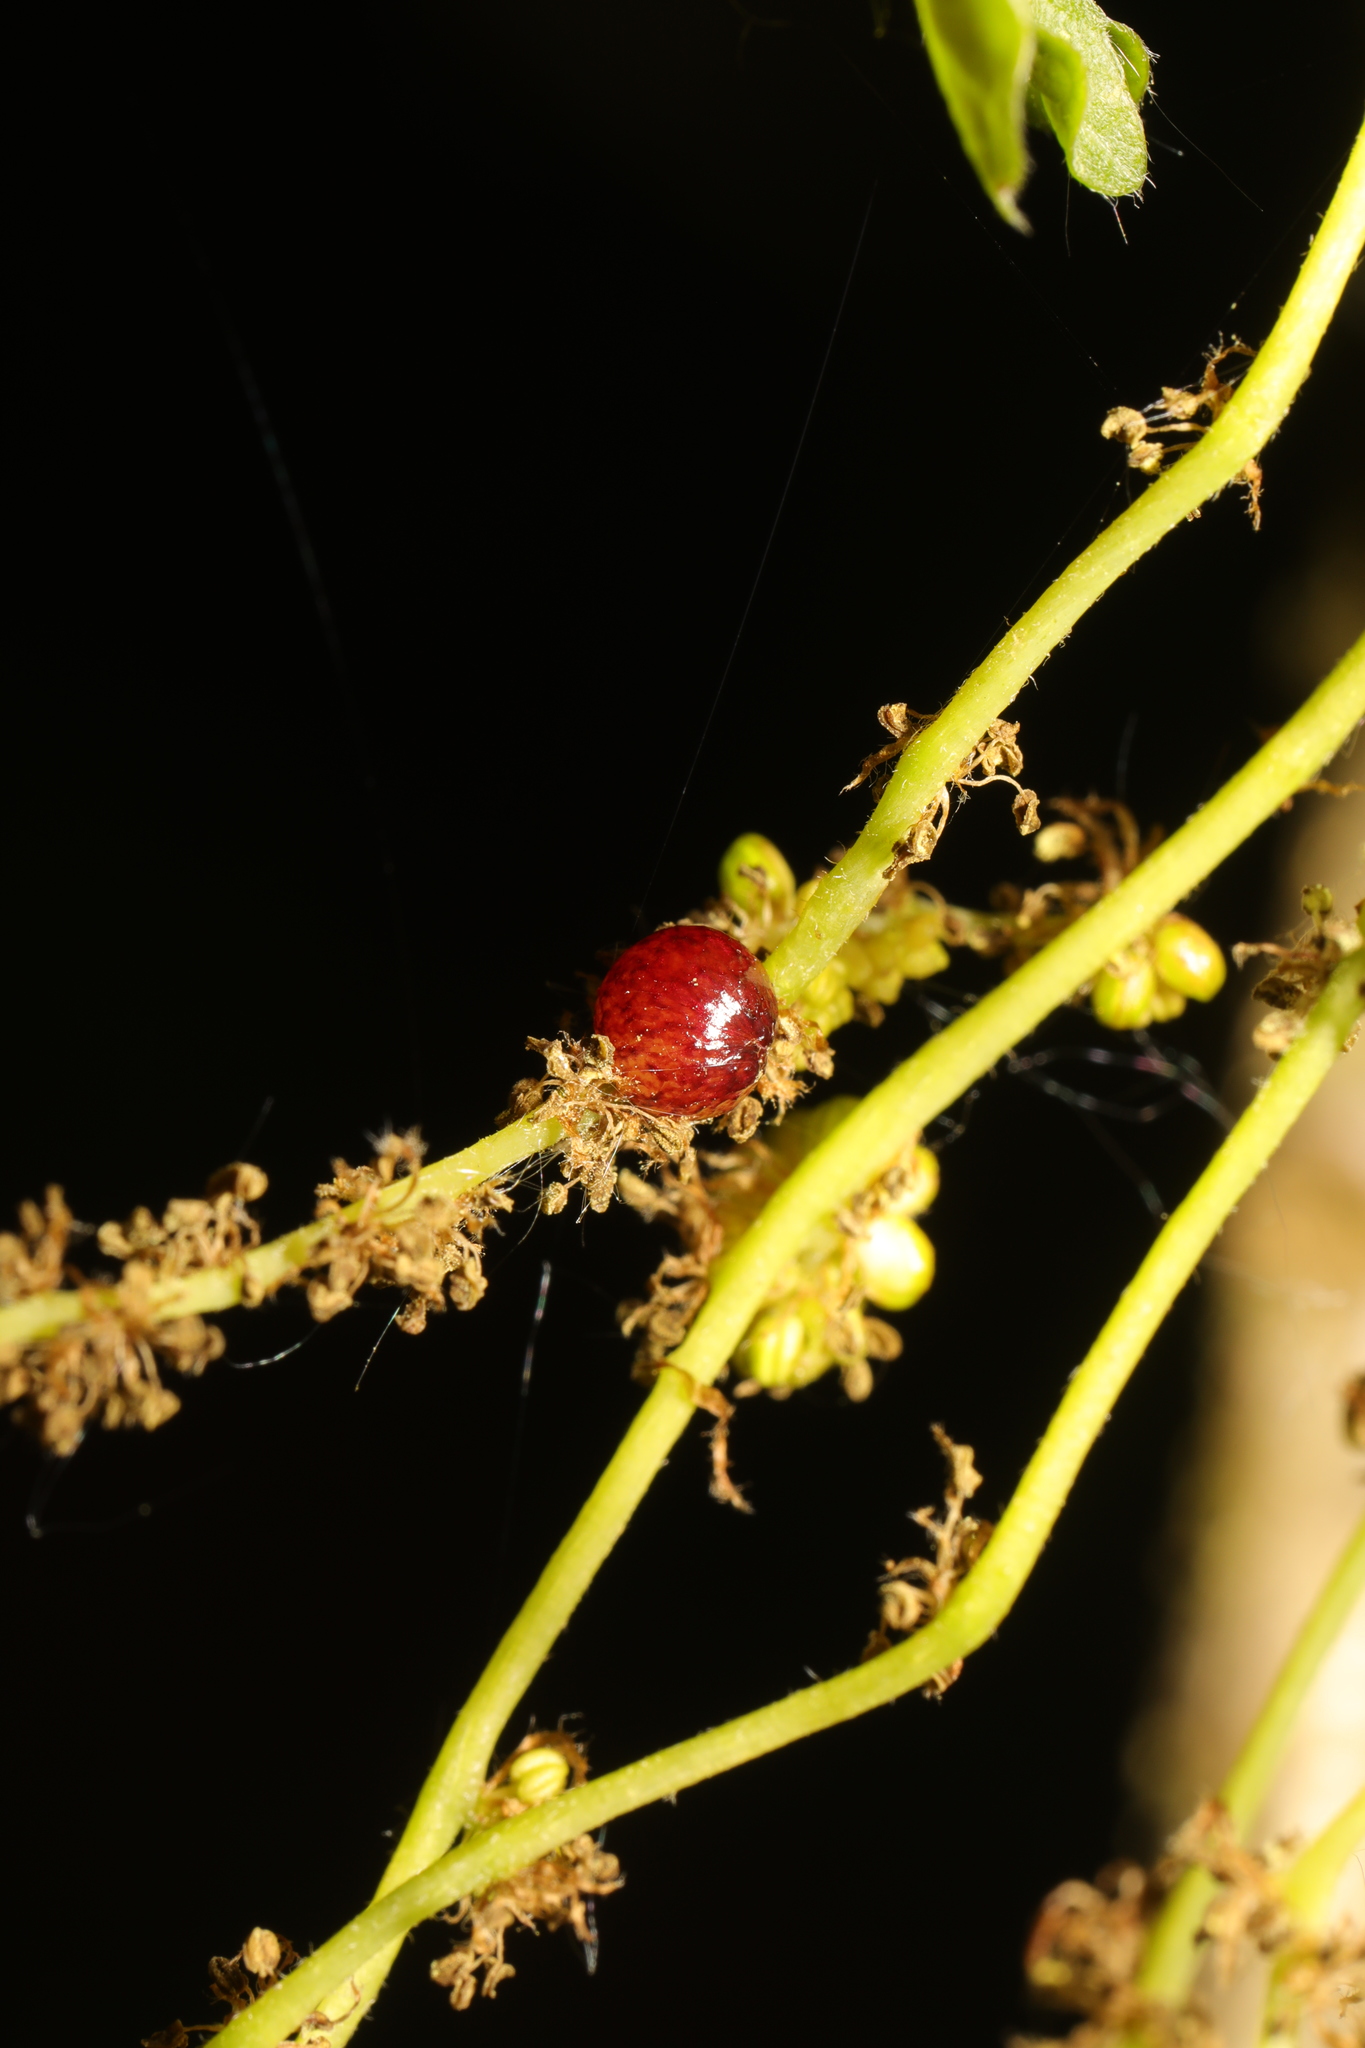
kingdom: Animalia
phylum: Arthropoda
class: Insecta
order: Hymenoptera
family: Cynipidae
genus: Neuroterus
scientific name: Neuroterus quercusbaccarum
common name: Common spangle gall
